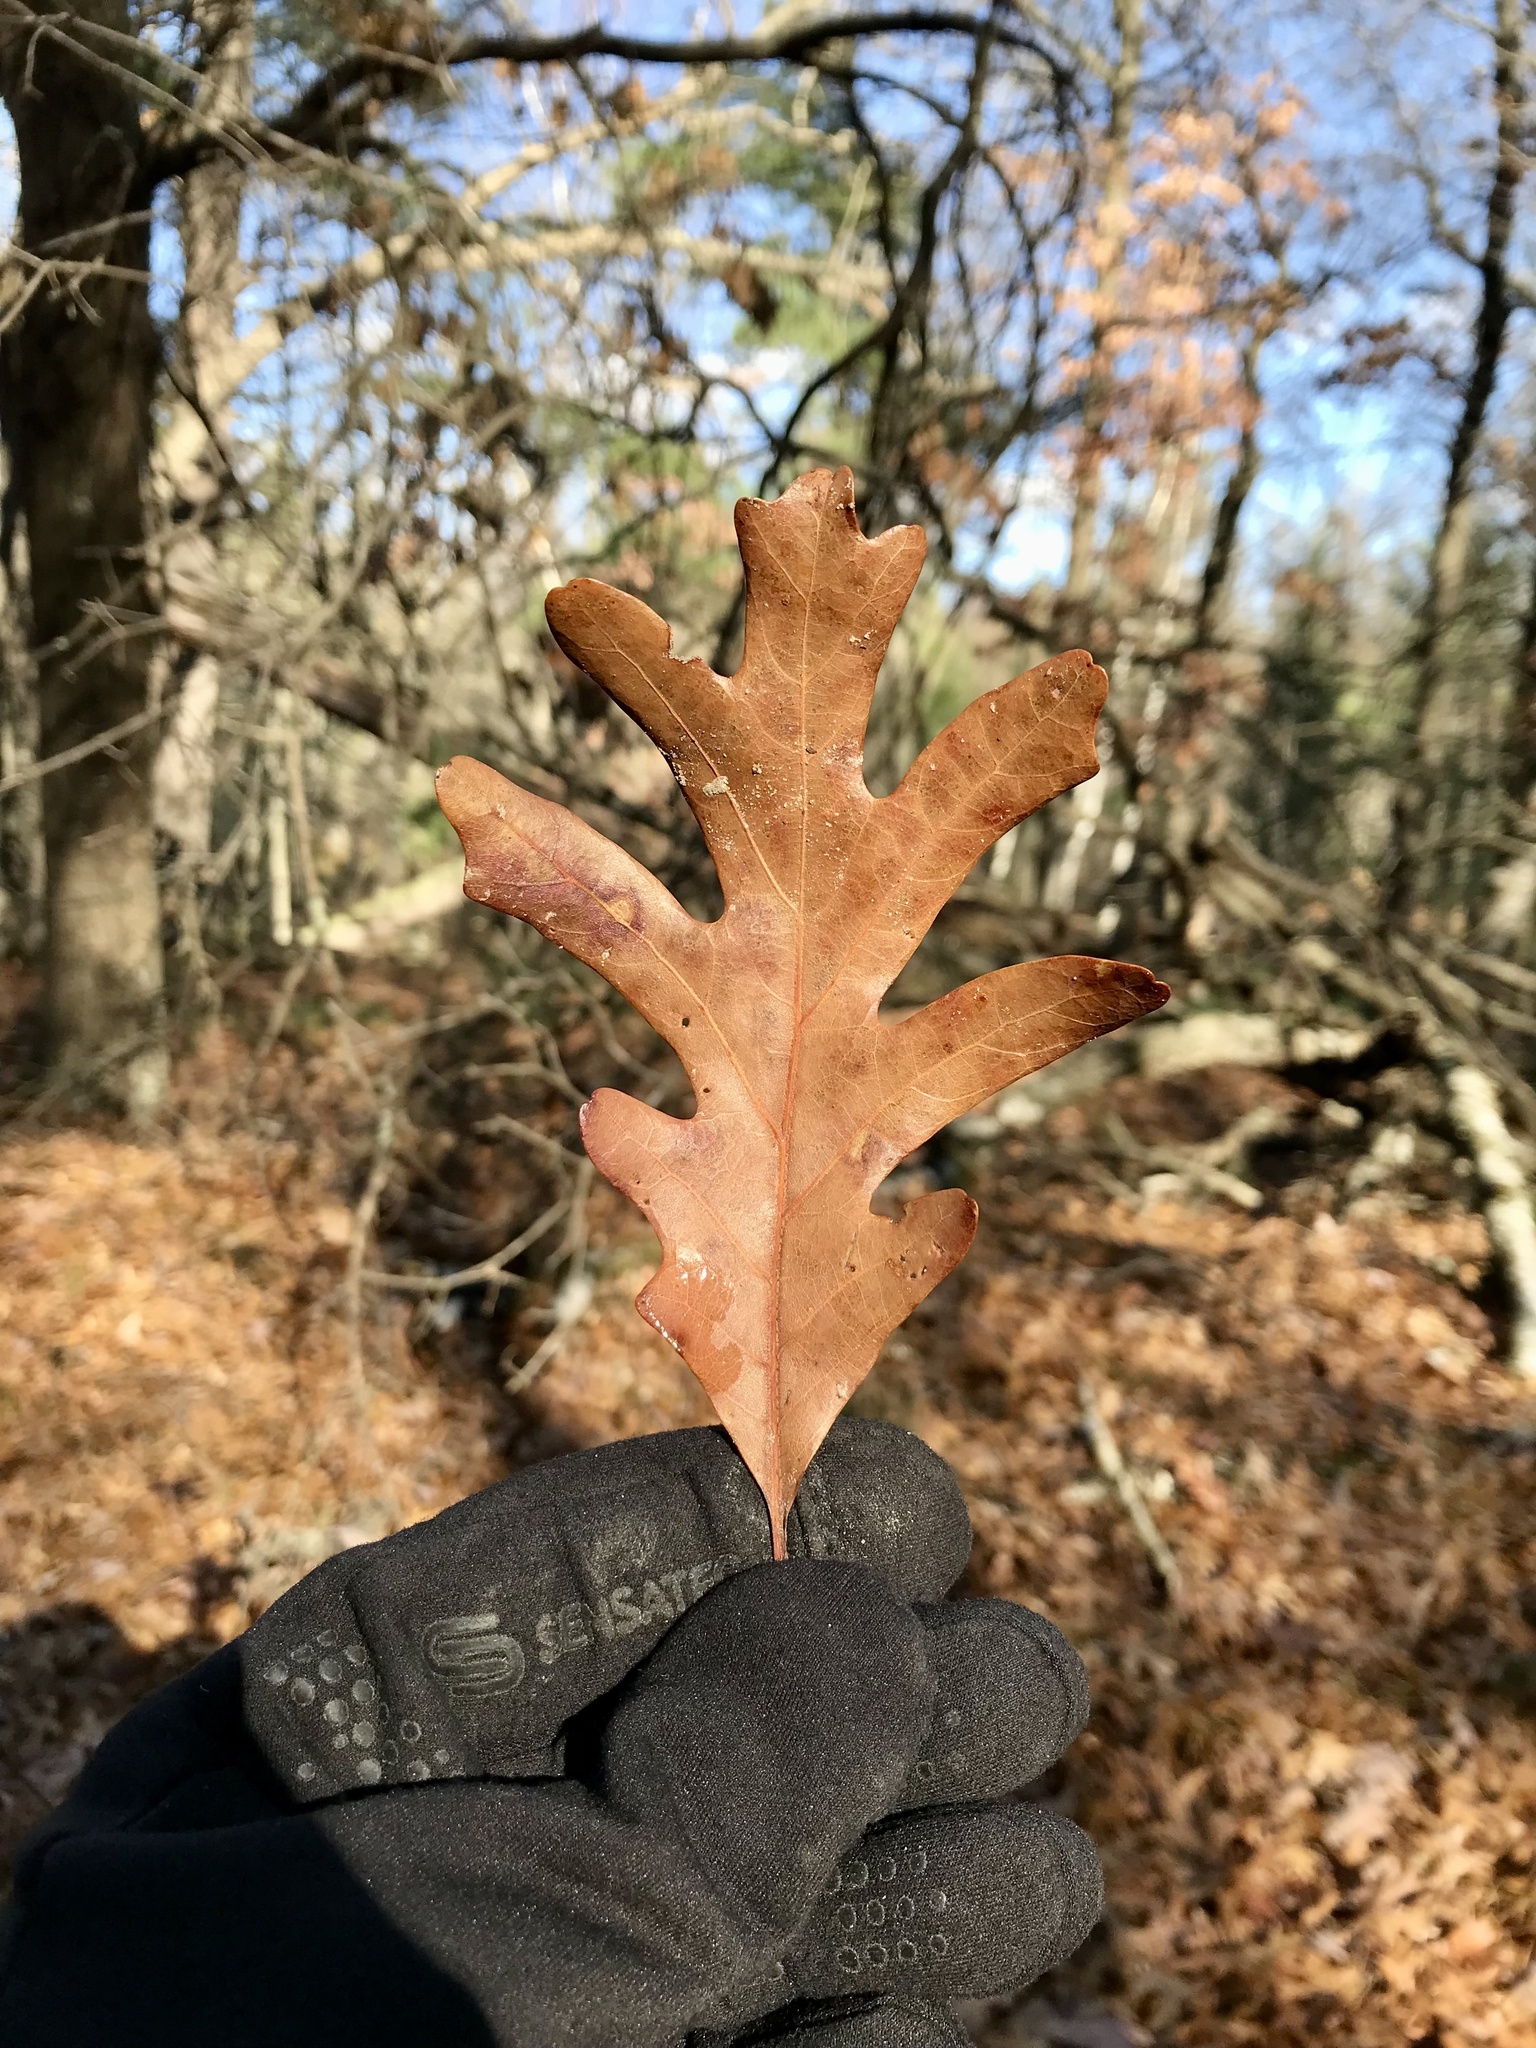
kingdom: Plantae
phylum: Tracheophyta
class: Magnoliopsida
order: Fagales
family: Fagaceae
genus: Quercus
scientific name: Quercus alba
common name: White oak
